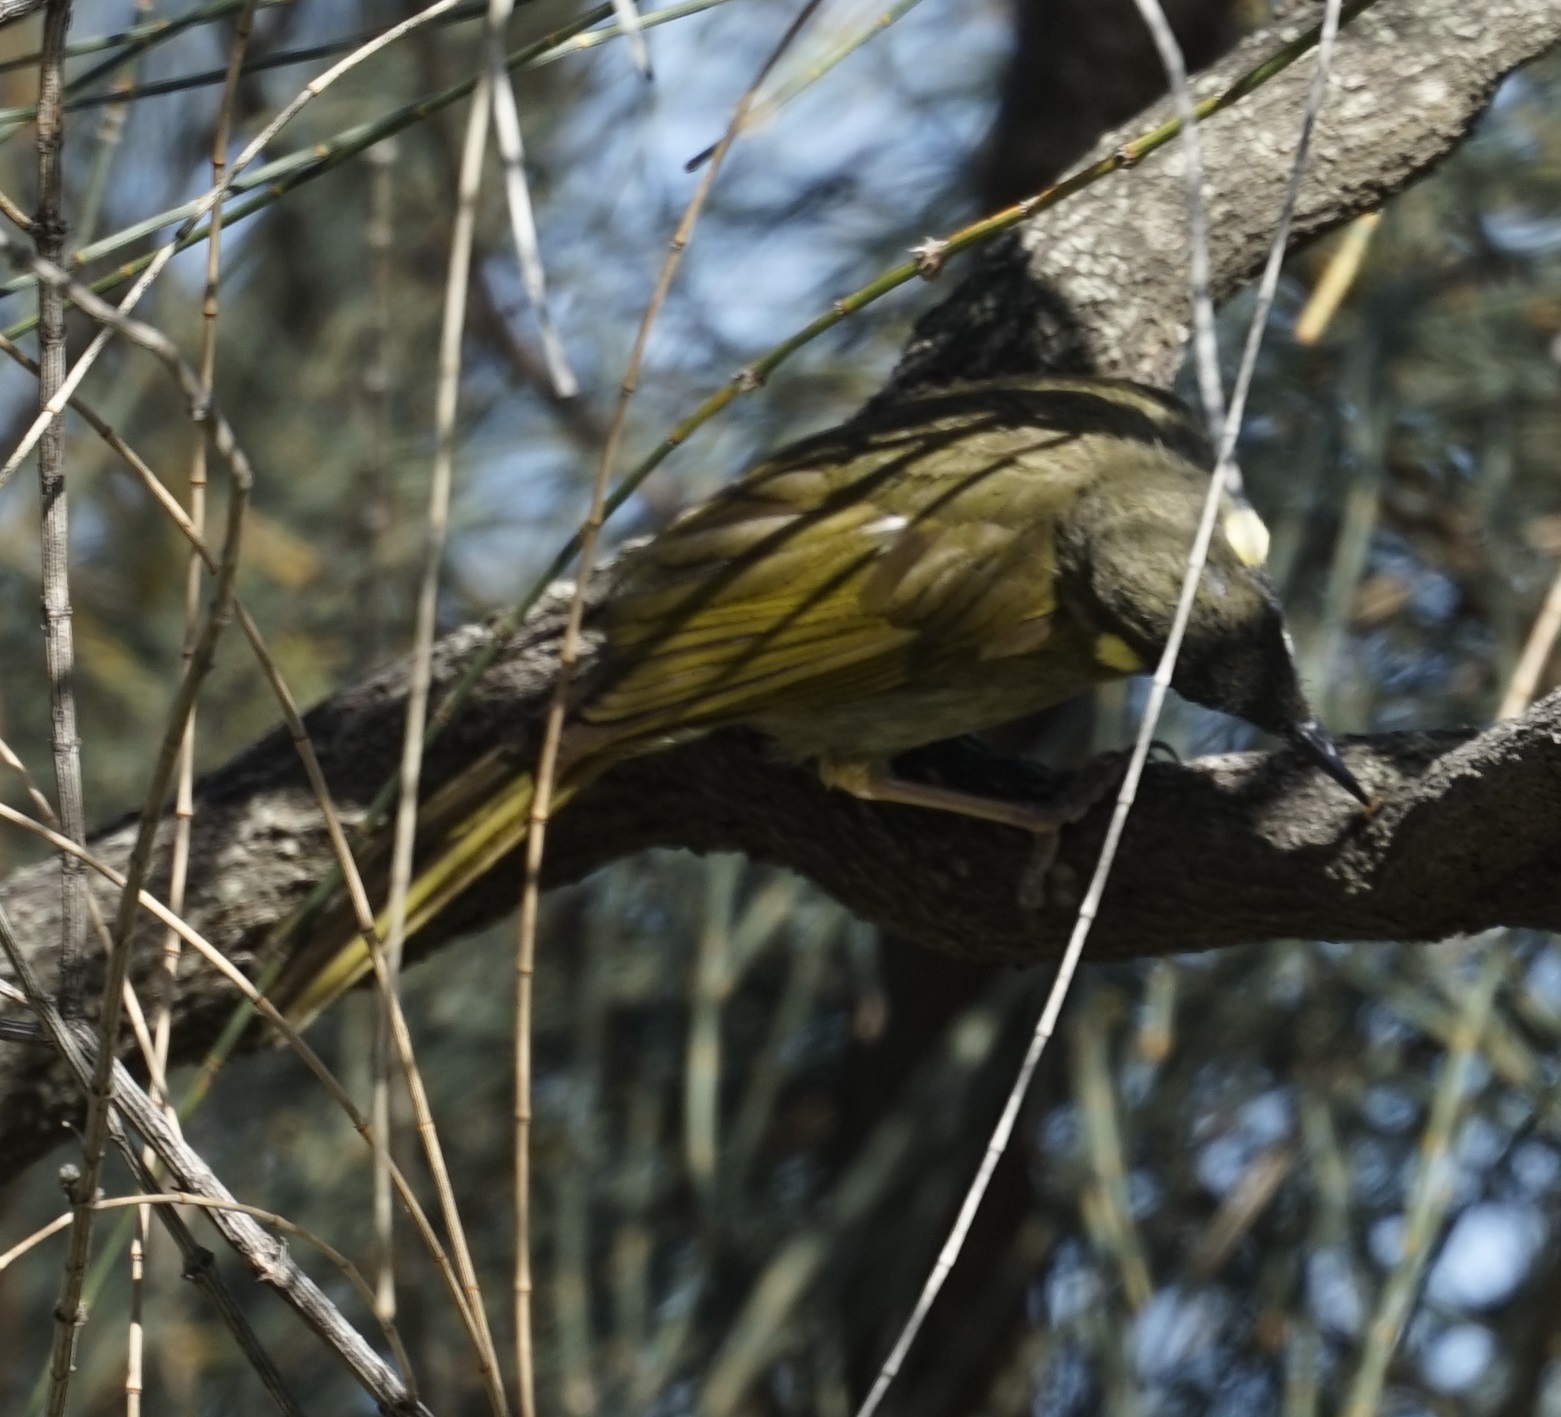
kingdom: Animalia
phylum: Chordata
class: Aves
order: Passeriformes
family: Meliphagidae
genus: Meliphaga
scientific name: Meliphaga lewinii
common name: Lewin's honeyeater
